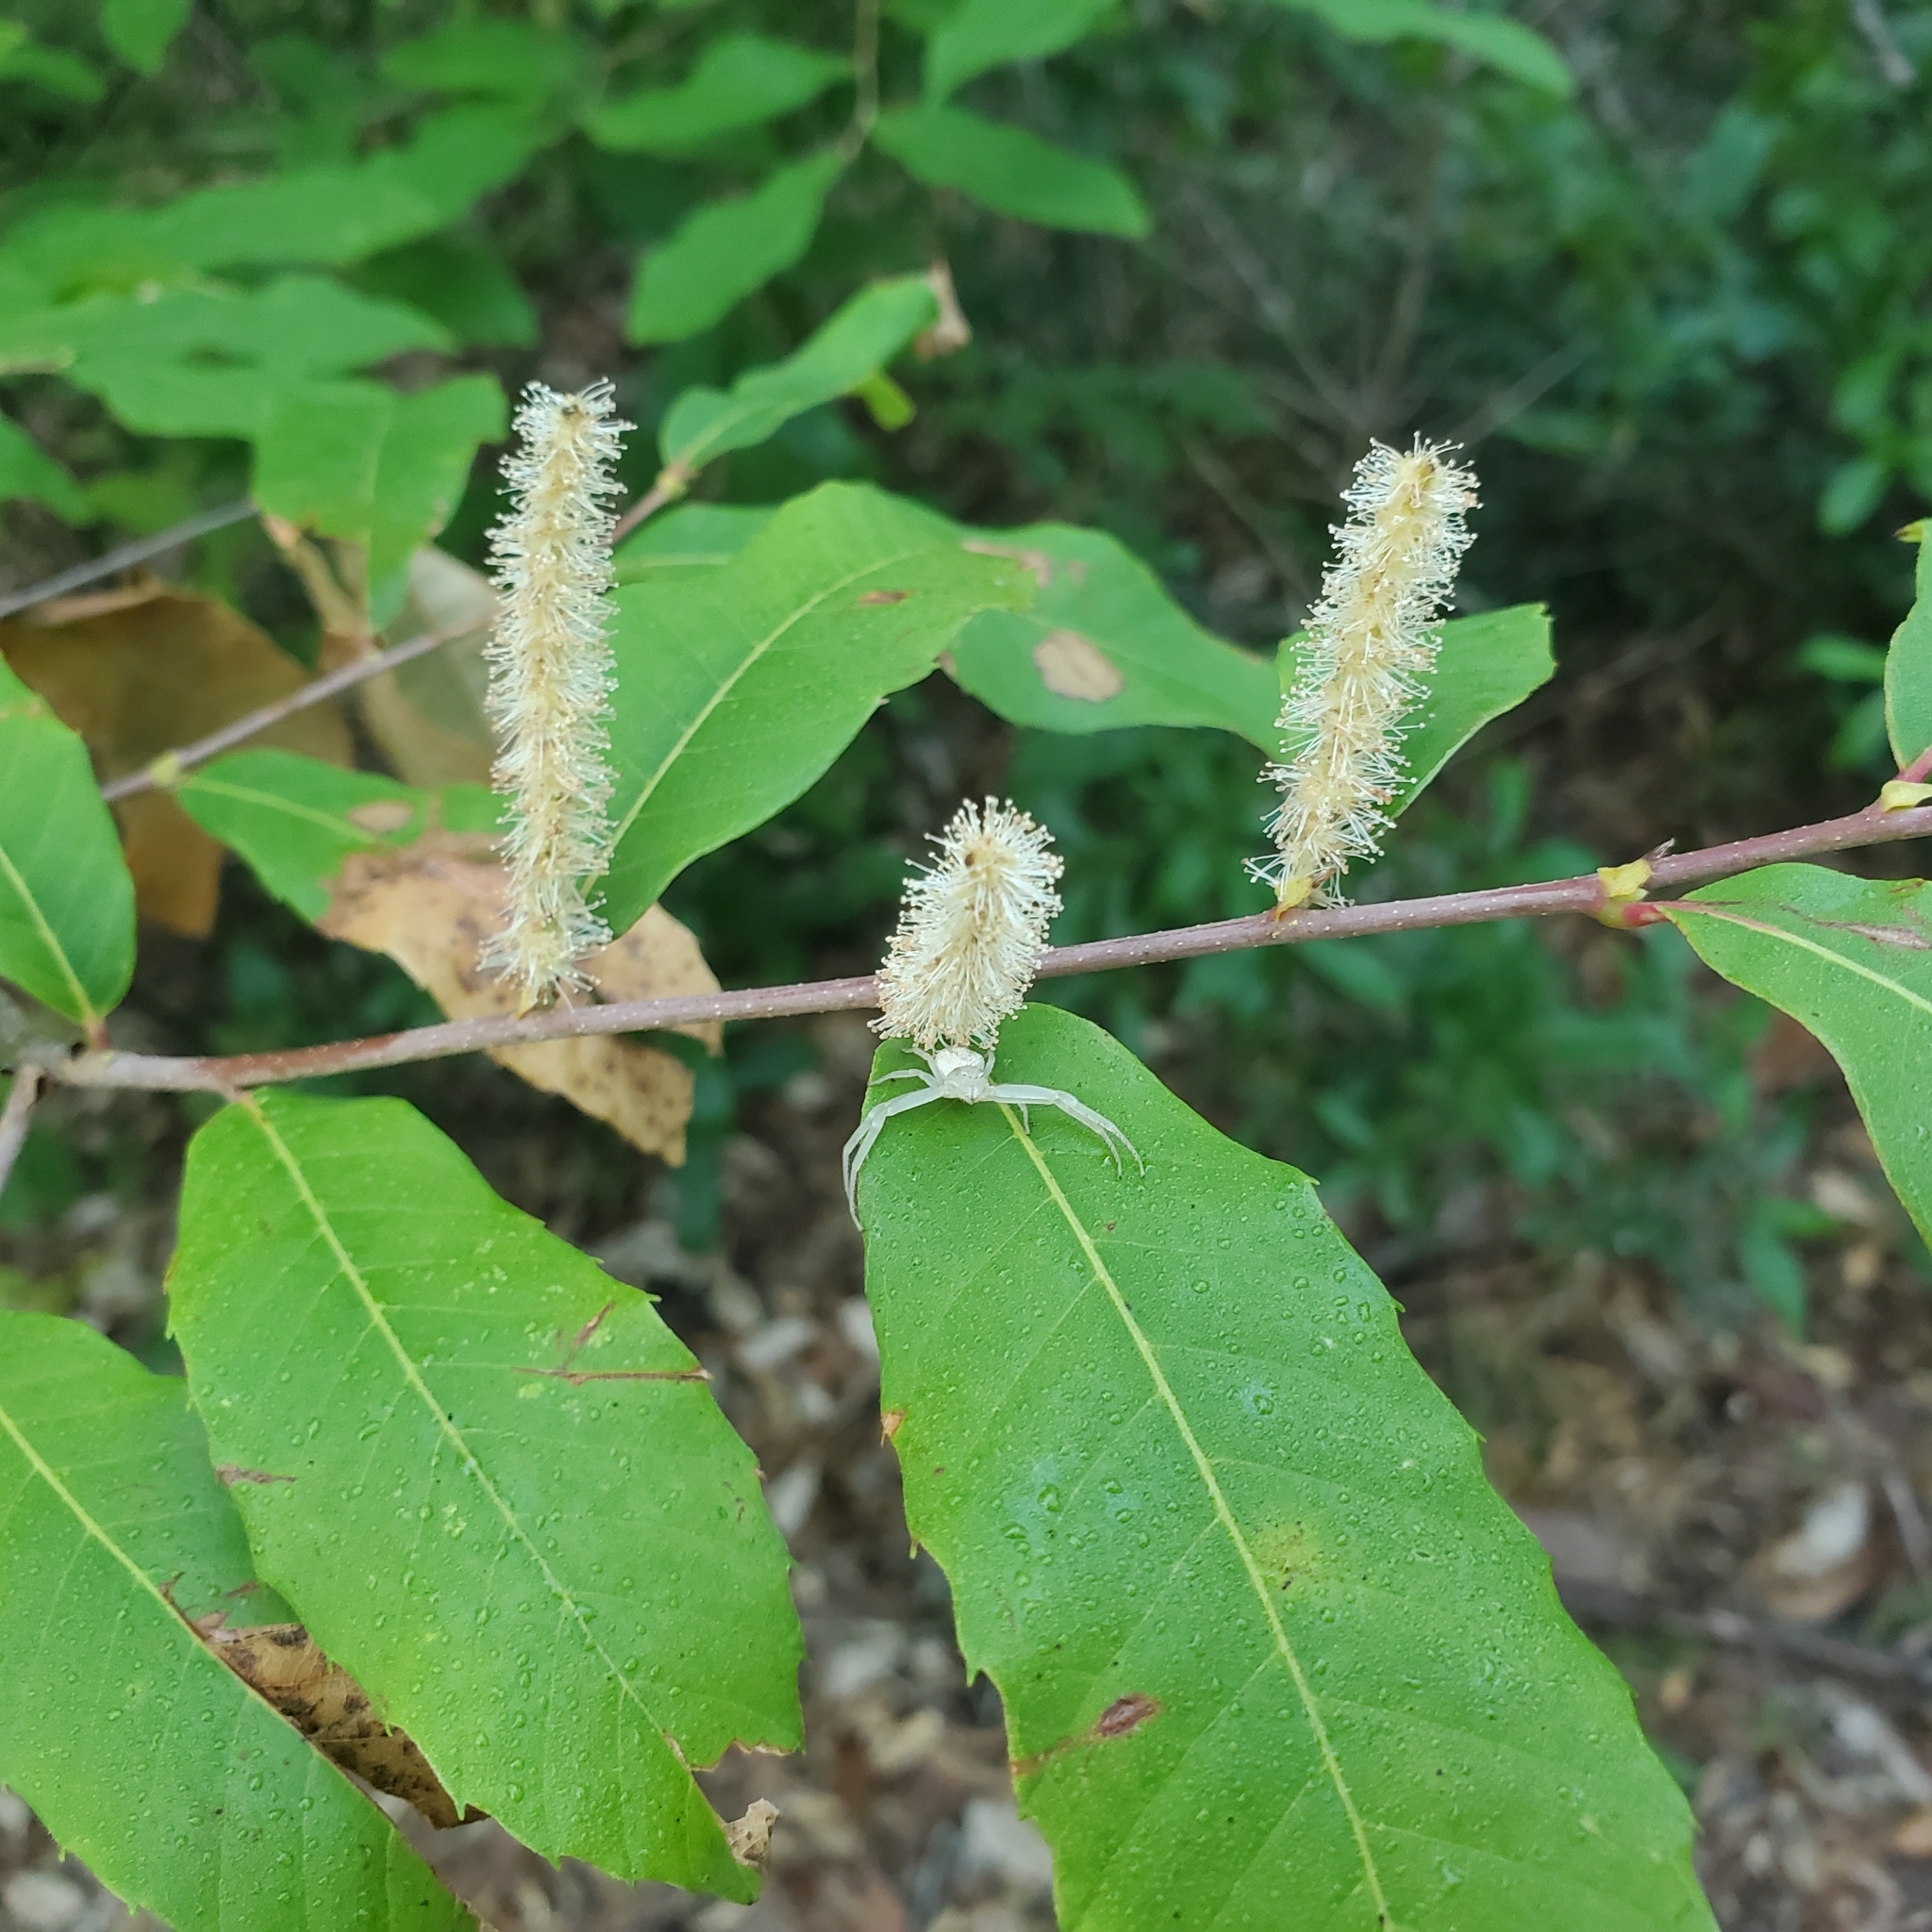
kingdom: Plantae
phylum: Tracheophyta
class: Magnoliopsida
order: Fagales
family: Fagaceae
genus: Castanea
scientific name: Castanea pumila
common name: Chinkapin
